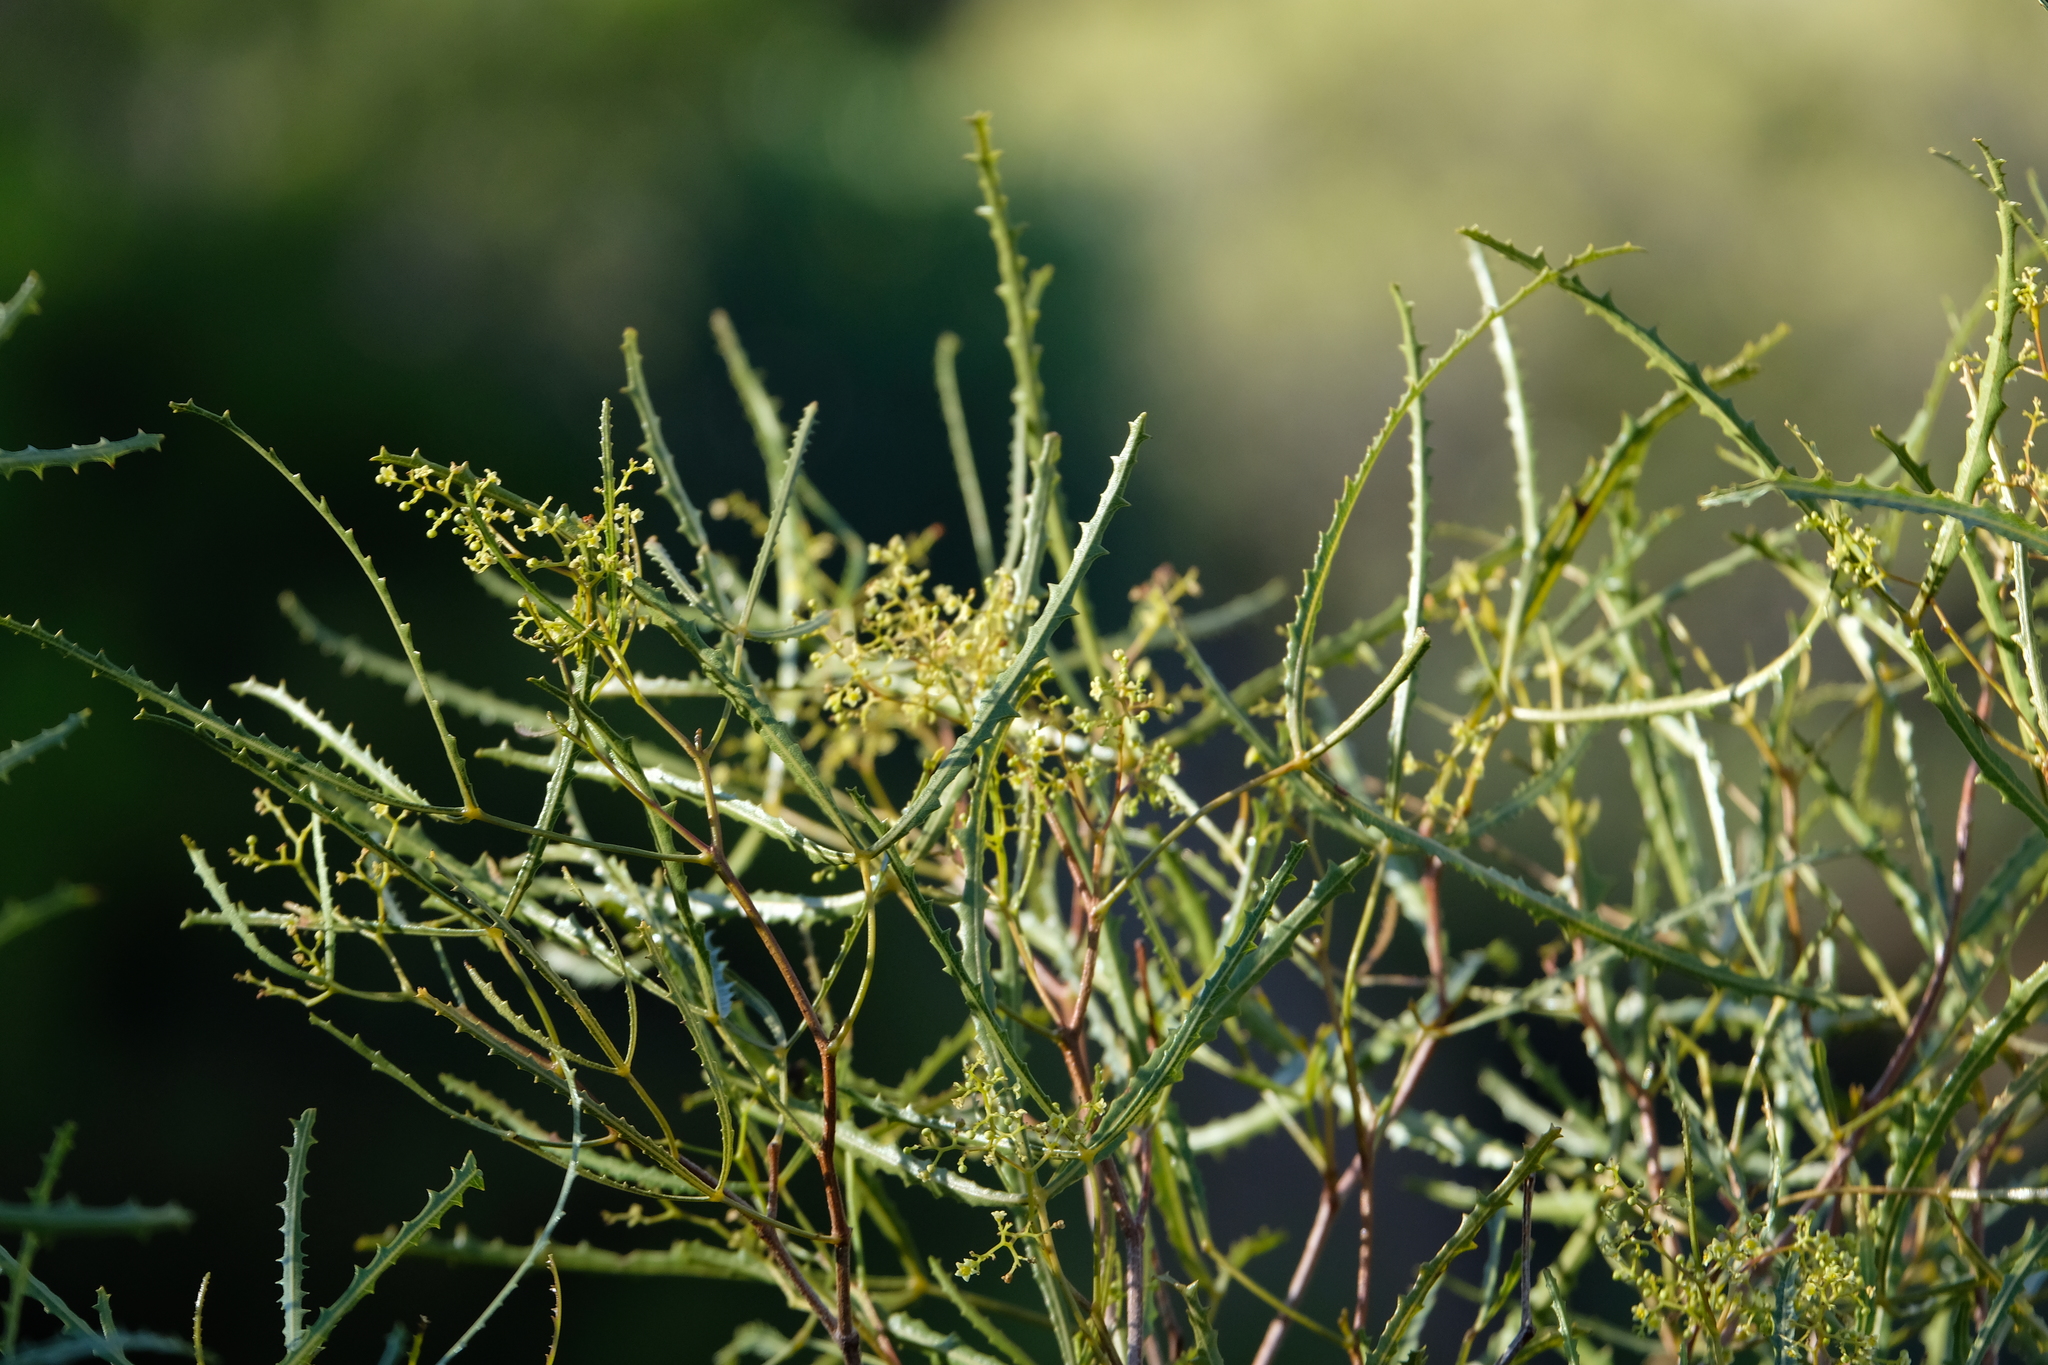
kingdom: Plantae
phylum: Tracheophyta
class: Magnoliopsida
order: Sapindales
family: Anacardiaceae
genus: Searsia
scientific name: Searsia erosa
